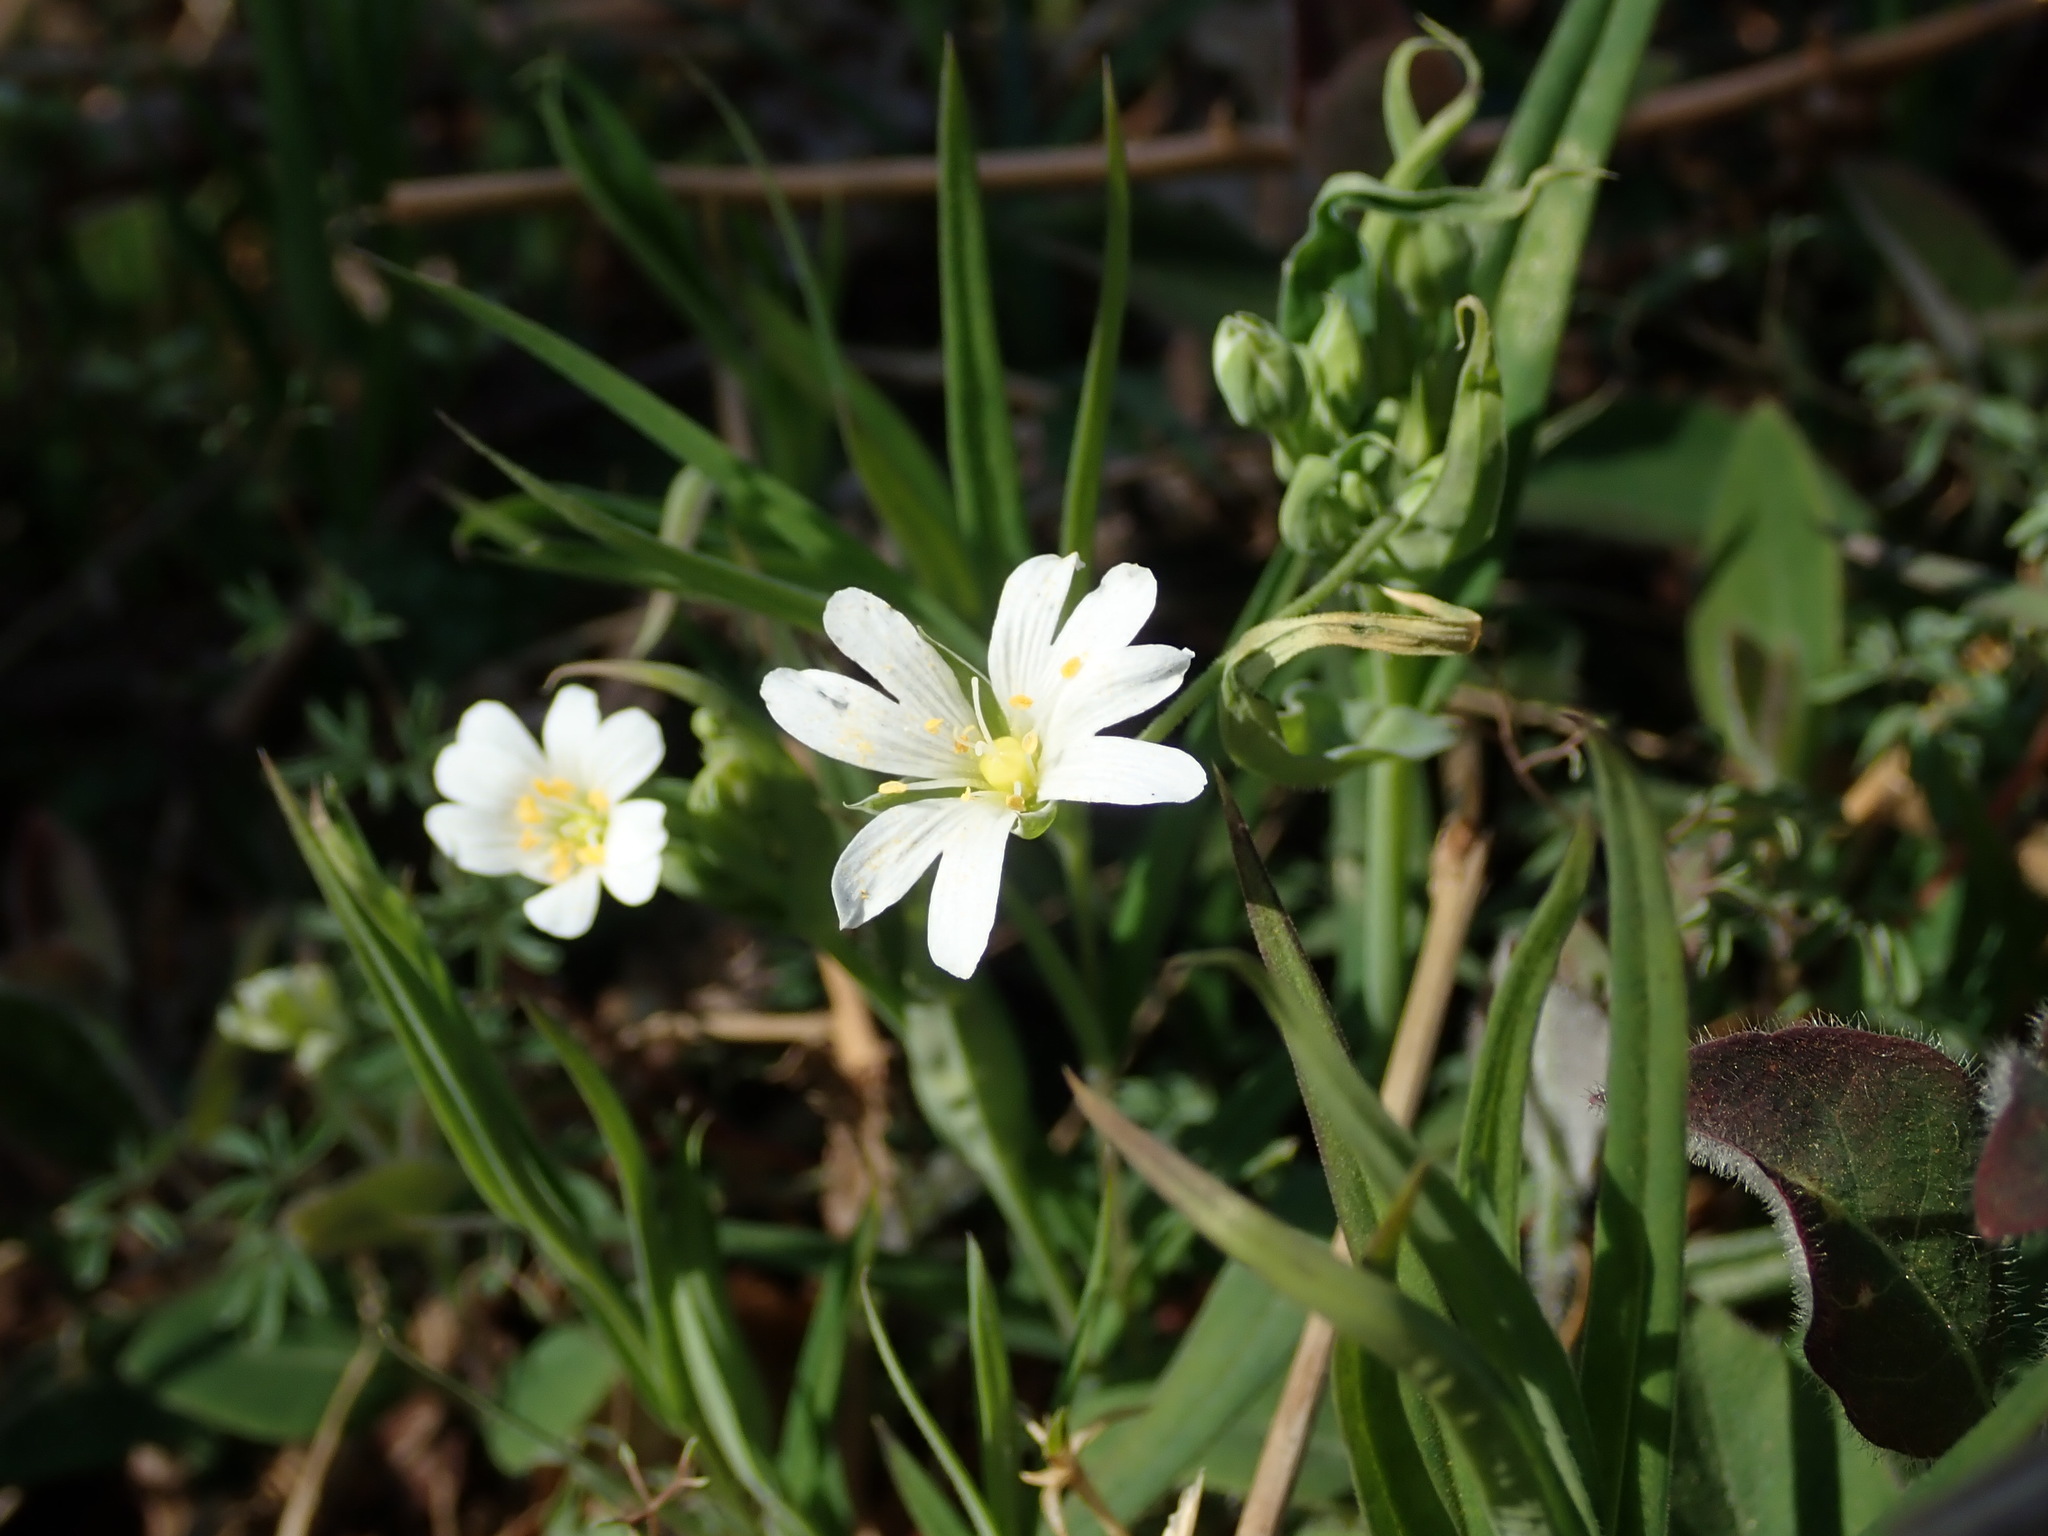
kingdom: Plantae
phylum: Tracheophyta
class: Magnoliopsida
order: Caryophyllales
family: Caryophyllaceae
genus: Rabelera
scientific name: Rabelera holostea
